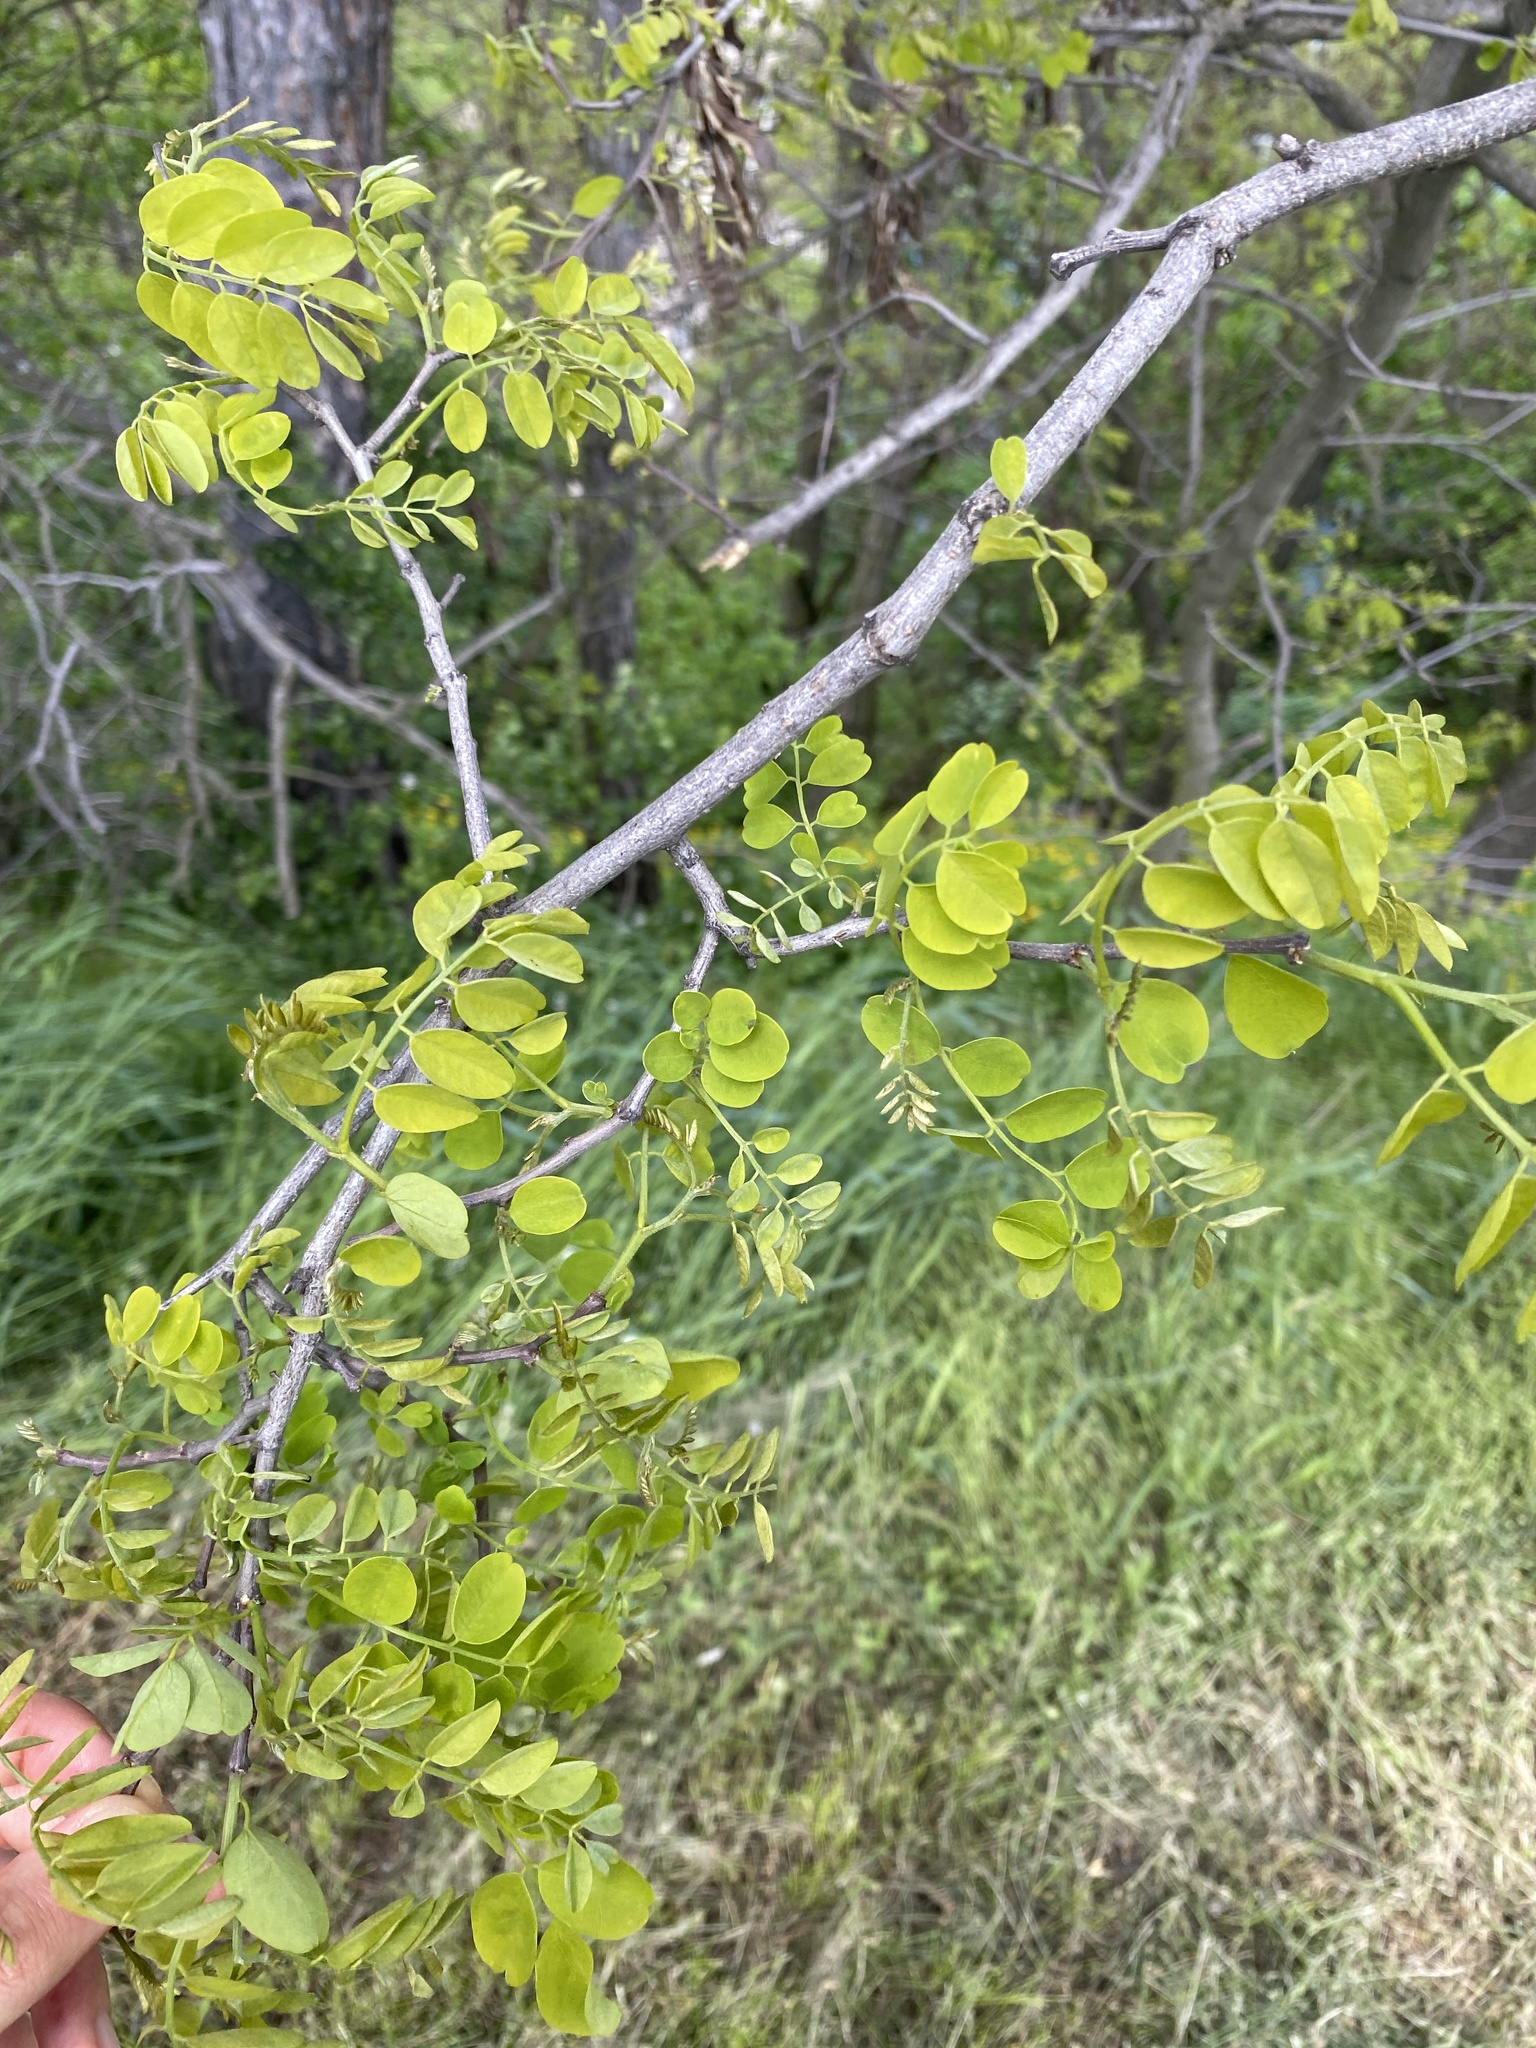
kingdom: Plantae
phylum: Tracheophyta
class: Magnoliopsida
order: Fabales
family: Fabaceae
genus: Robinia
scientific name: Robinia pseudoacacia
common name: Black locust
